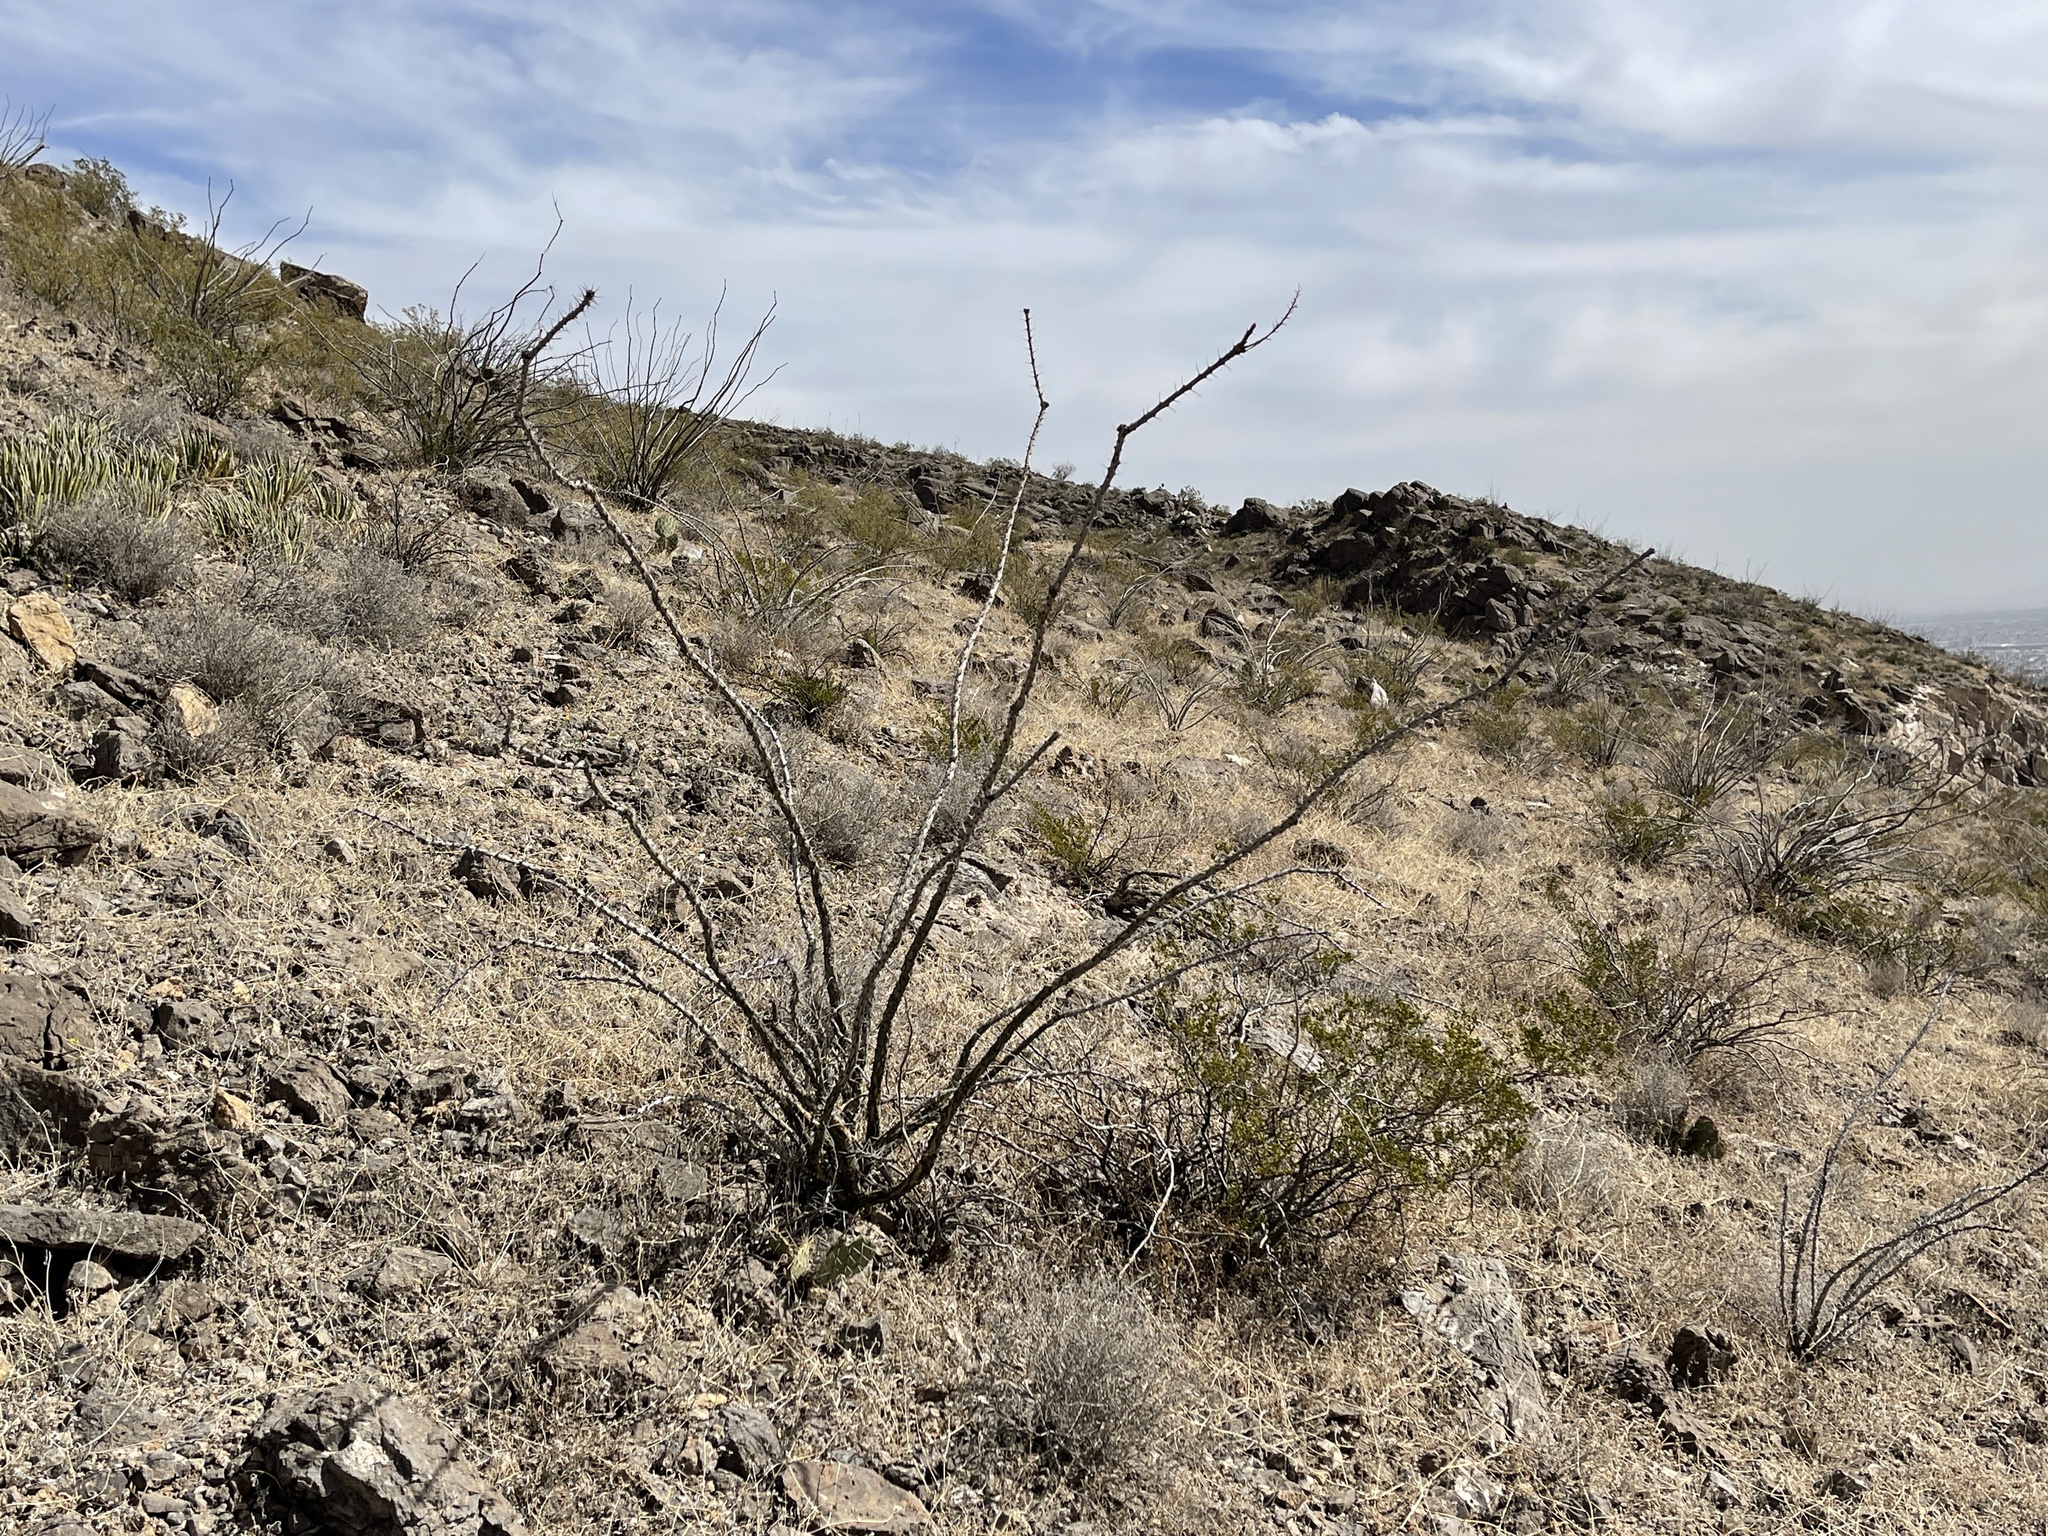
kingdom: Plantae
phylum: Tracheophyta
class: Magnoliopsida
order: Ericales
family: Fouquieriaceae
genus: Fouquieria
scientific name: Fouquieria splendens
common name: Vine-cactus
